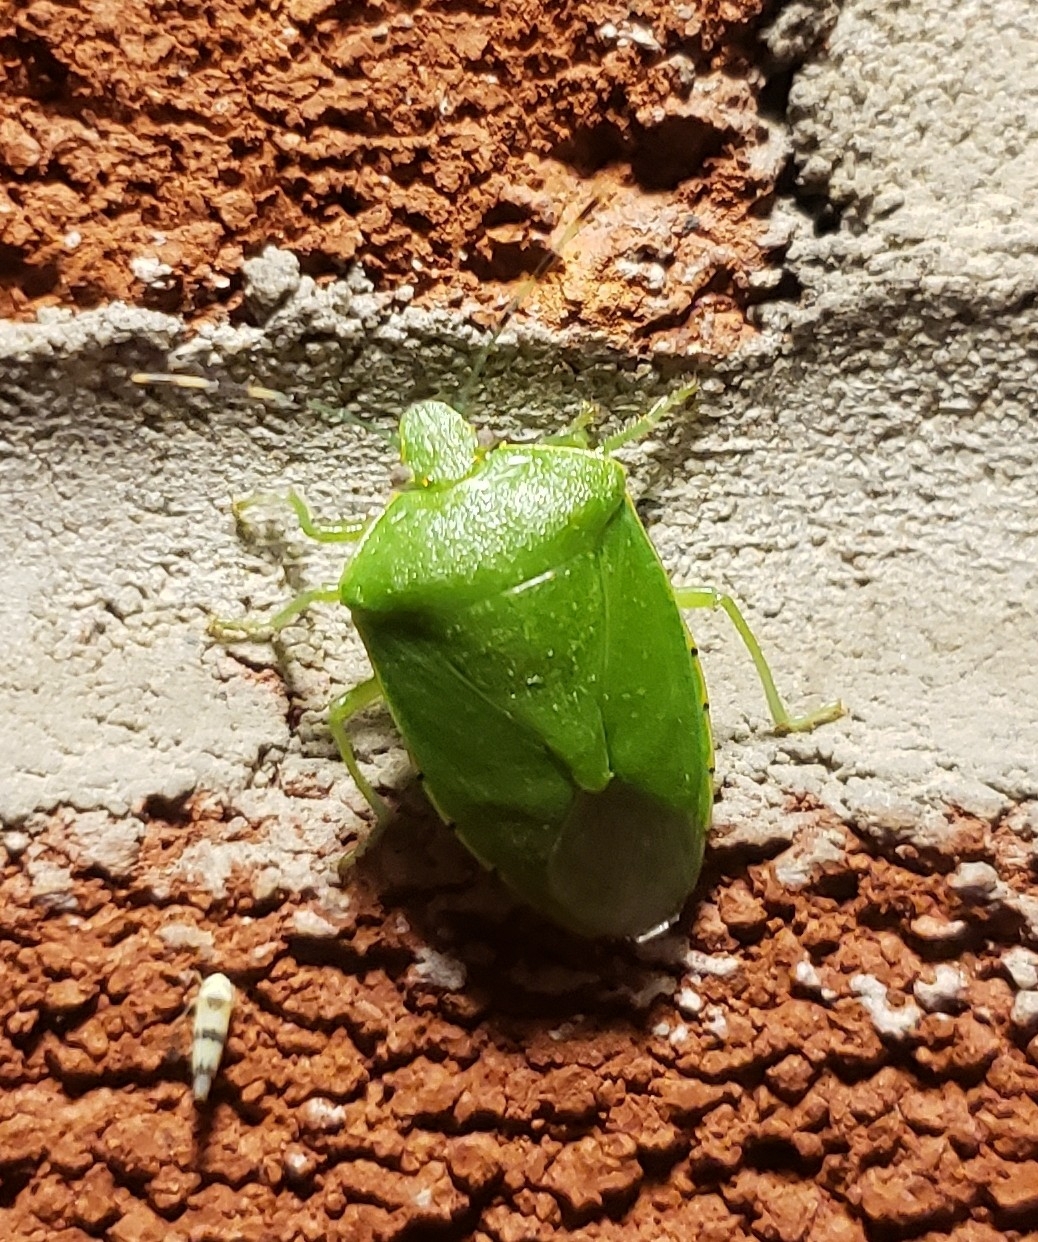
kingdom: Animalia
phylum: Arthropoda
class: Insecta
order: Hemiptera
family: Pentatomidae
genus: Chinavia
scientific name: Chinavia hilaris
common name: Green stink bug
